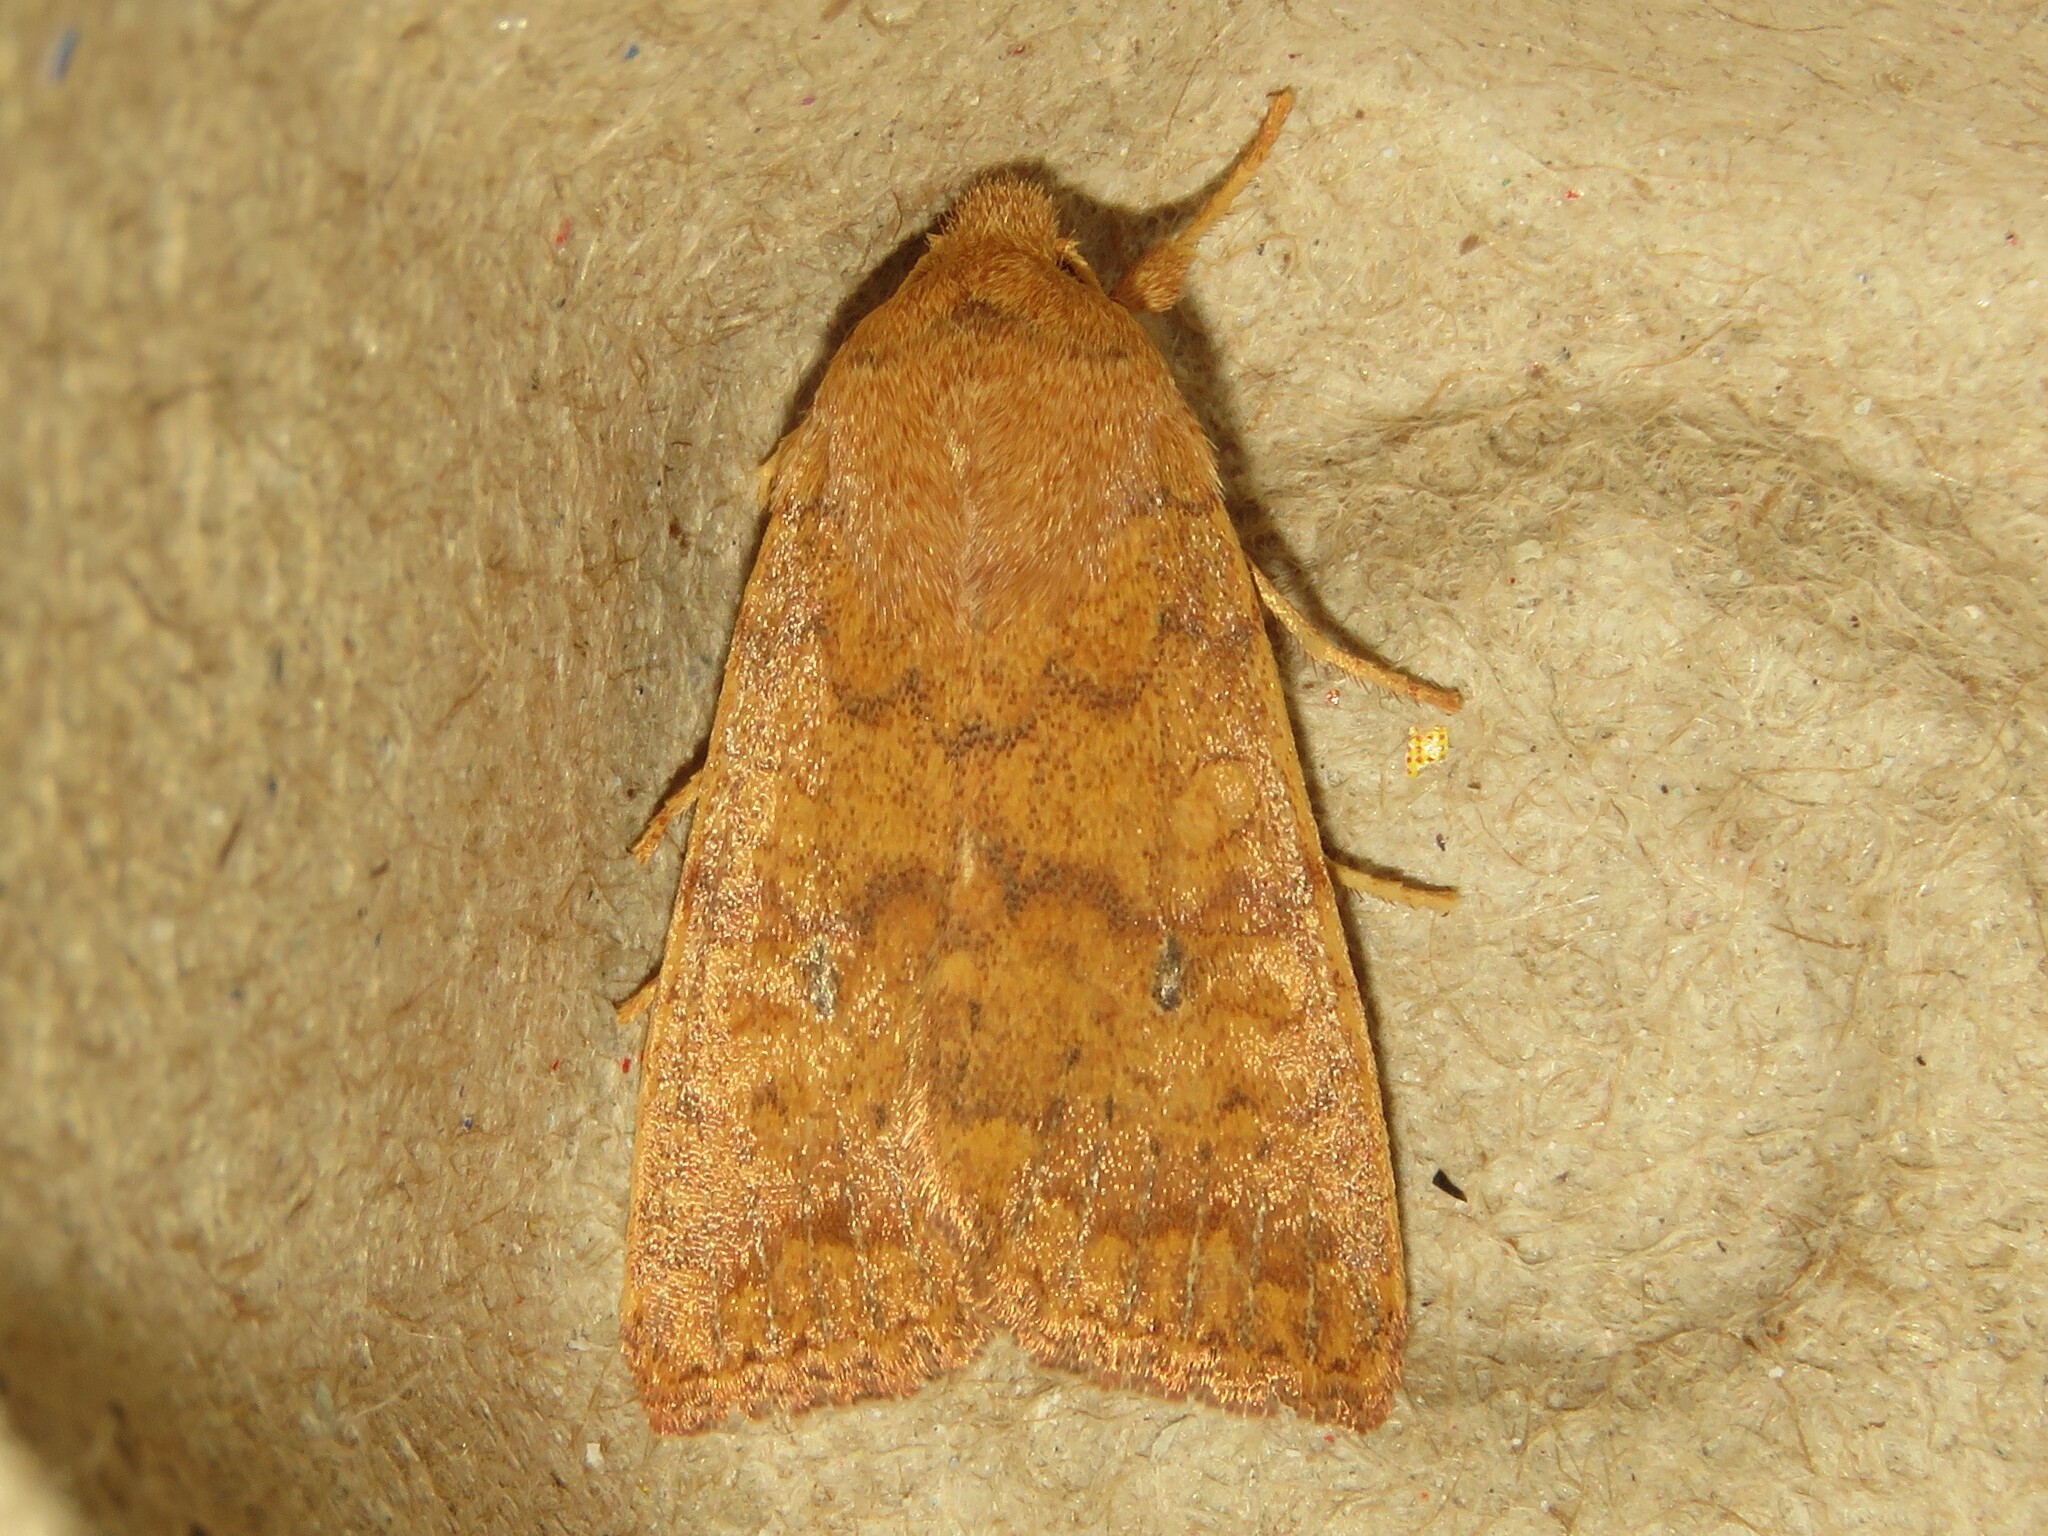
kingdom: Animalia
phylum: Arthropoda
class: Insecta
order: Lepidoptera
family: Noctuidae
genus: Agrochola
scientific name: Agrochola bicolorago
